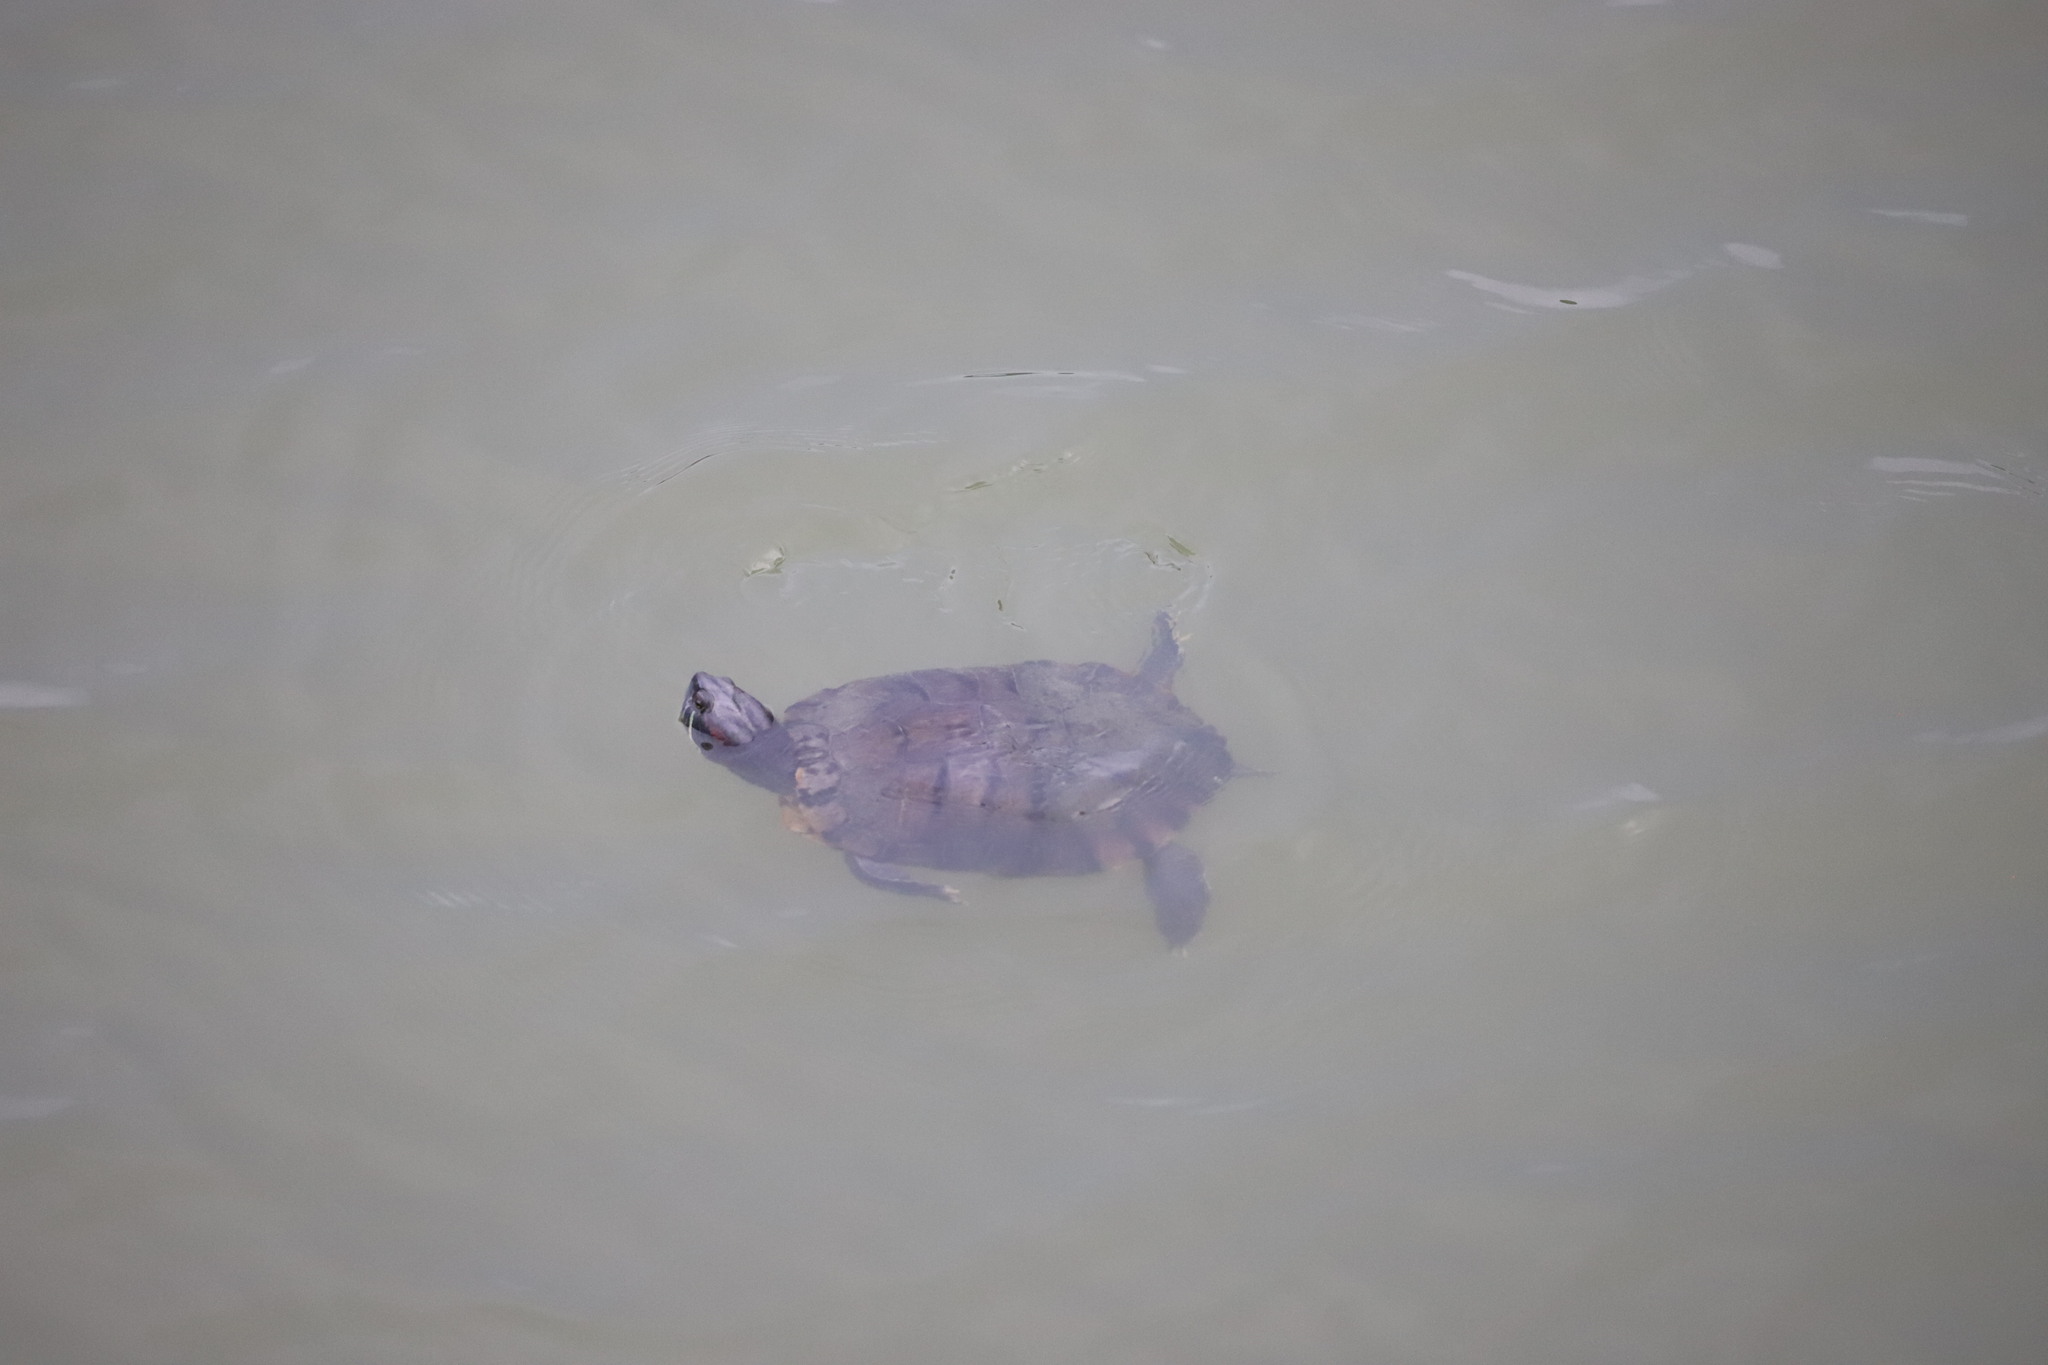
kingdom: Animalia
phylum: Chordata
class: Testudines
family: Emydidae
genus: Trachemys
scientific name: Trachemys scripta
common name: Slider
